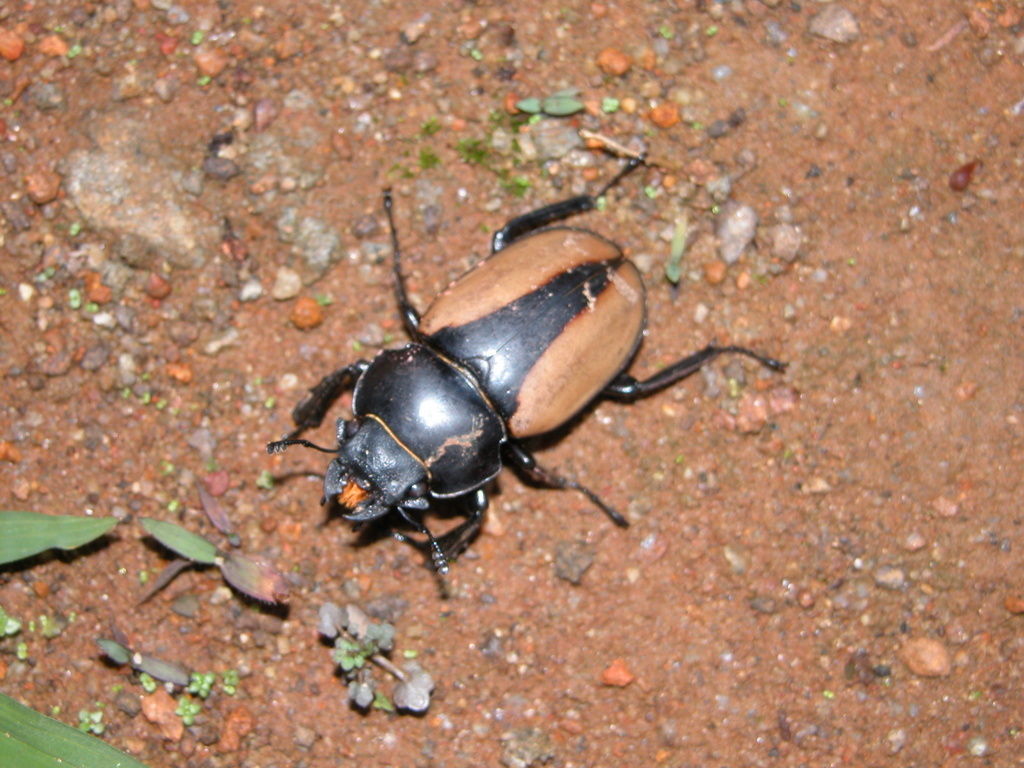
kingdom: Animalia
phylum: Arthropoda
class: Insecta
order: Coleoptera
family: Lucanidae
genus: Odontolabis
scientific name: Odontolabis burmeisteri
